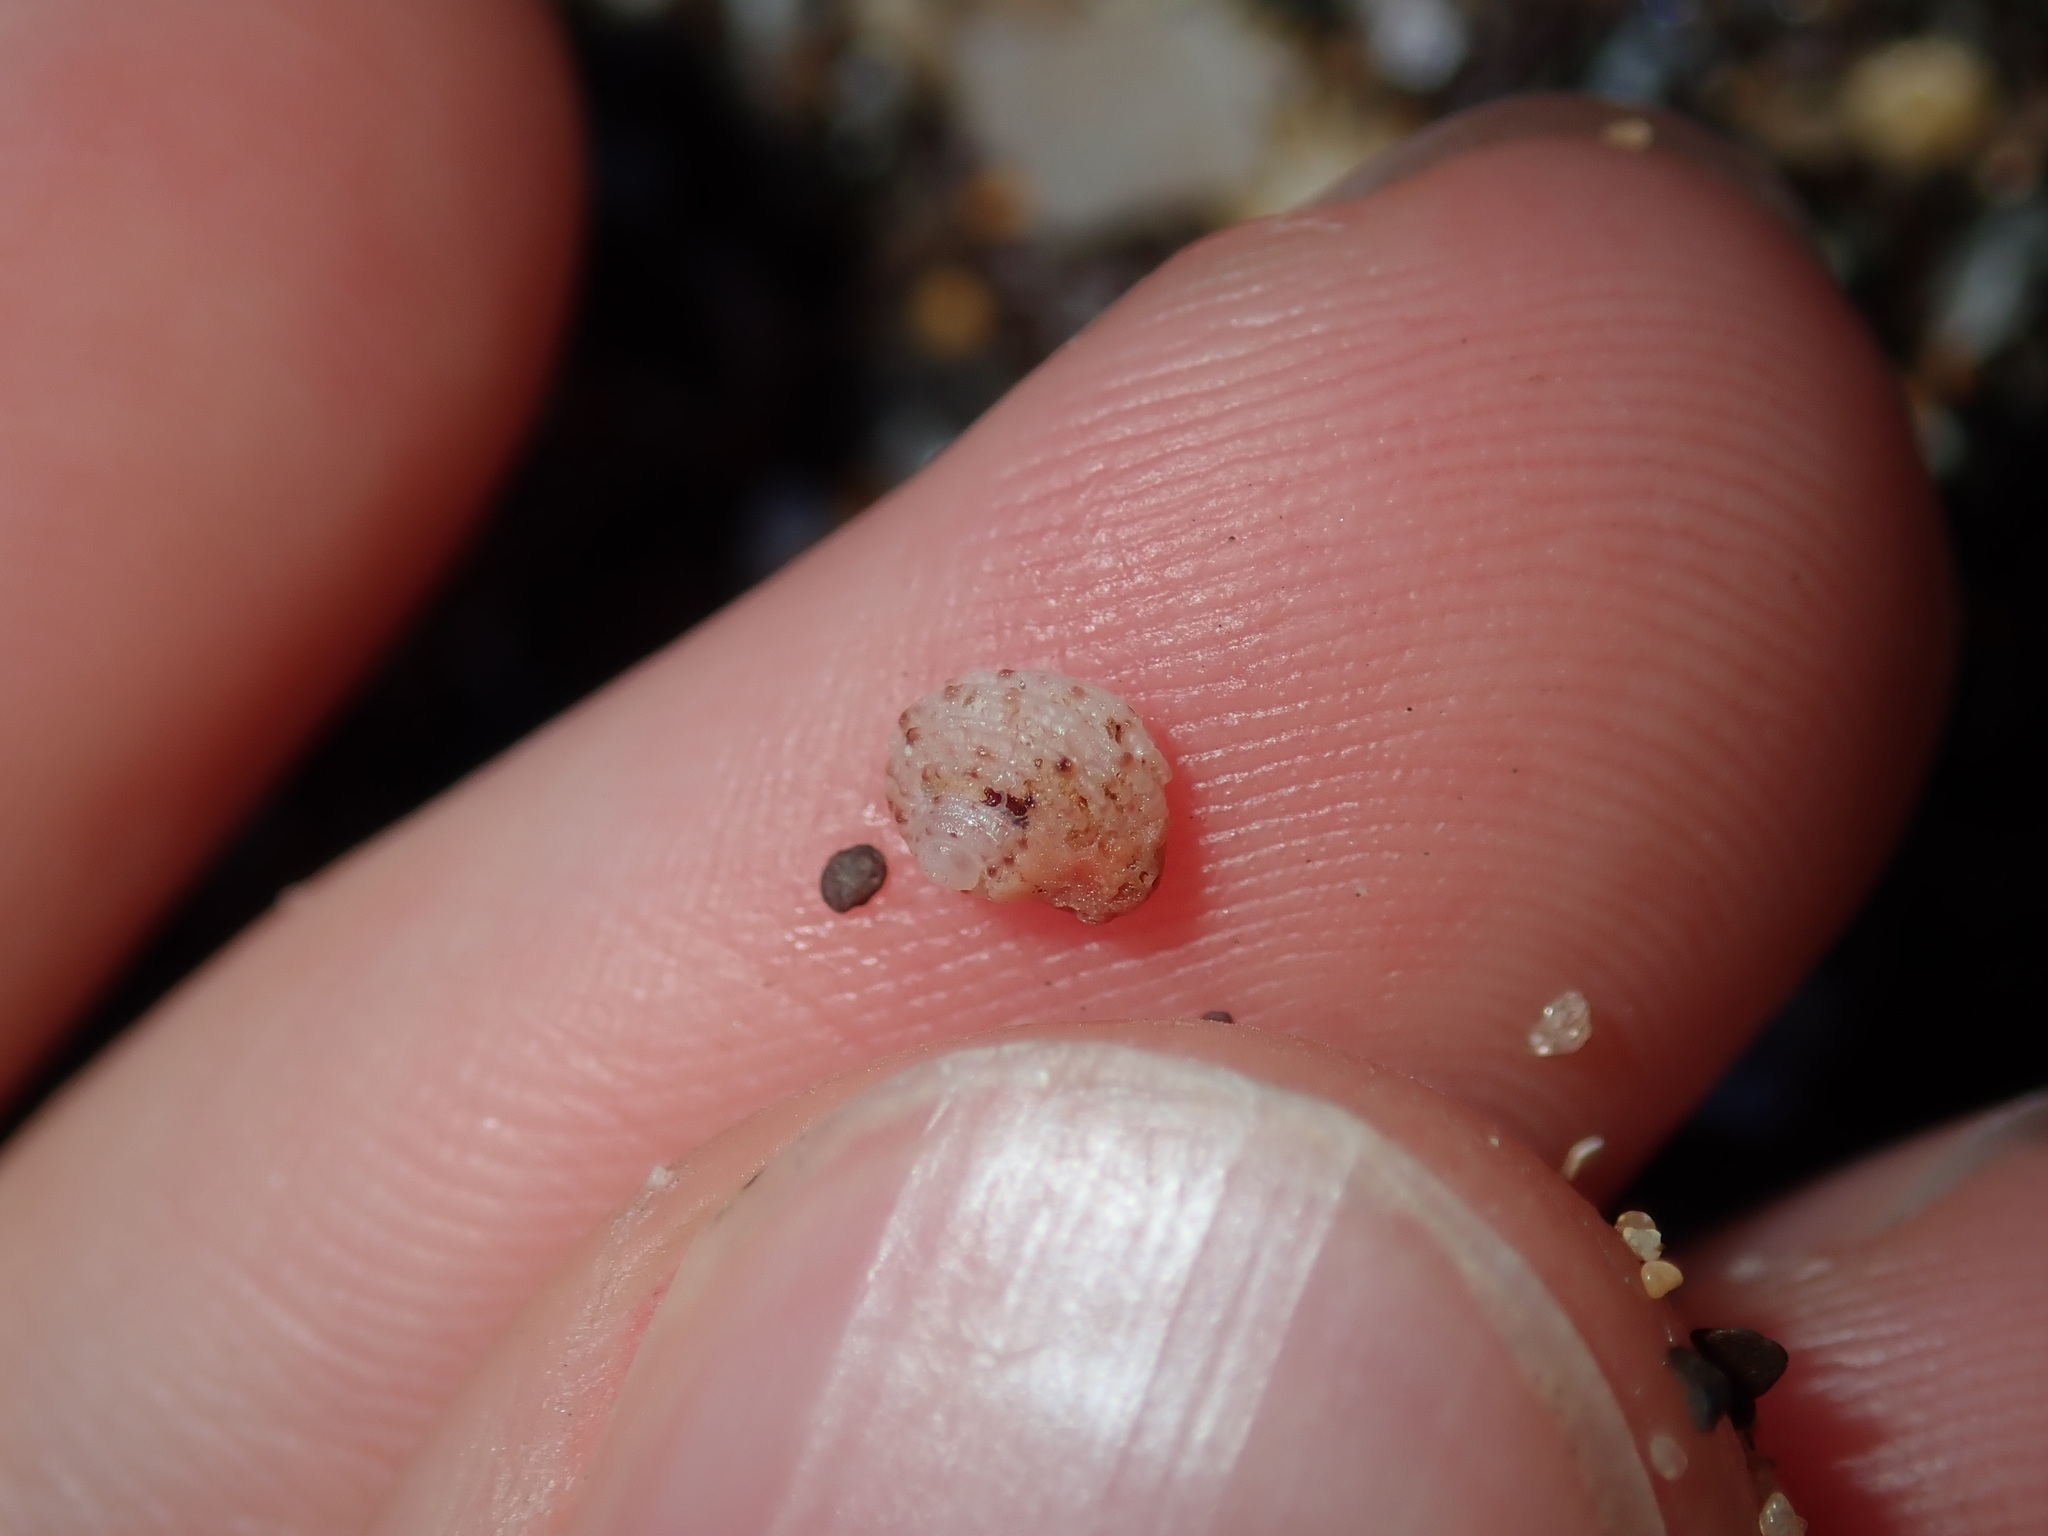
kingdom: Animalia
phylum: Mollusca
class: Gastropoda
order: Seguenziida
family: Chilodontaidae
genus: Vaceuchelus
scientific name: Vaceuchelus ampullus
